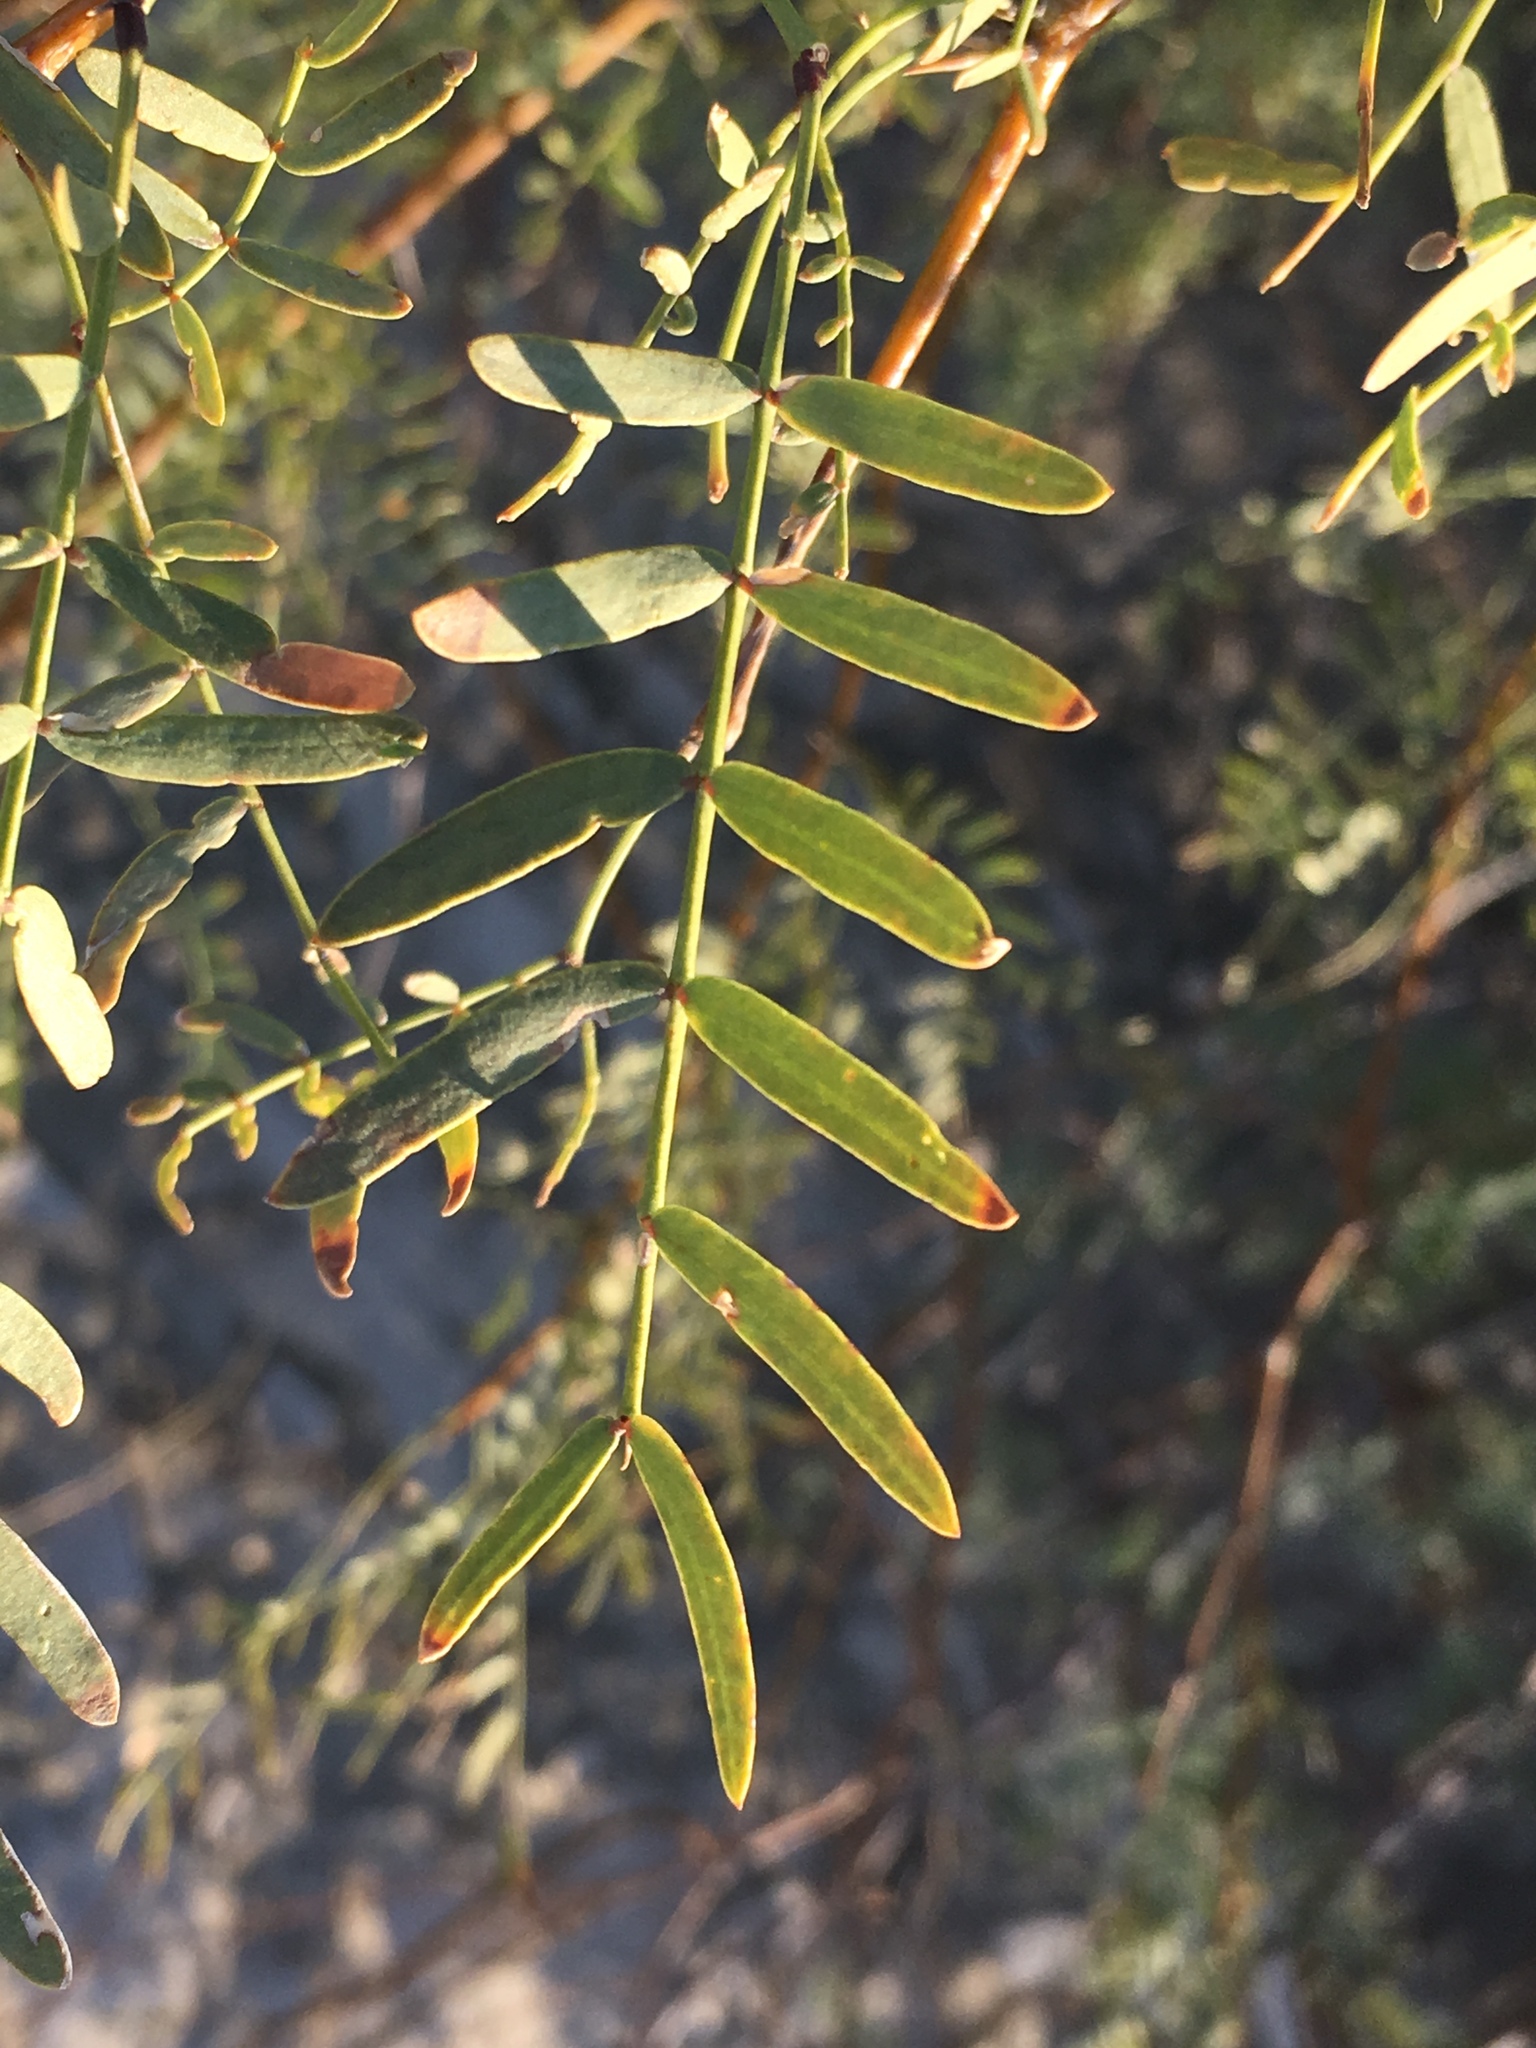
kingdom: Plantae
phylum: Tracheophyta
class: Magnoliopsida
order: Fabales
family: Fabaceae
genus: Prosopis
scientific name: Prosopis pubescens
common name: Screw-bean
